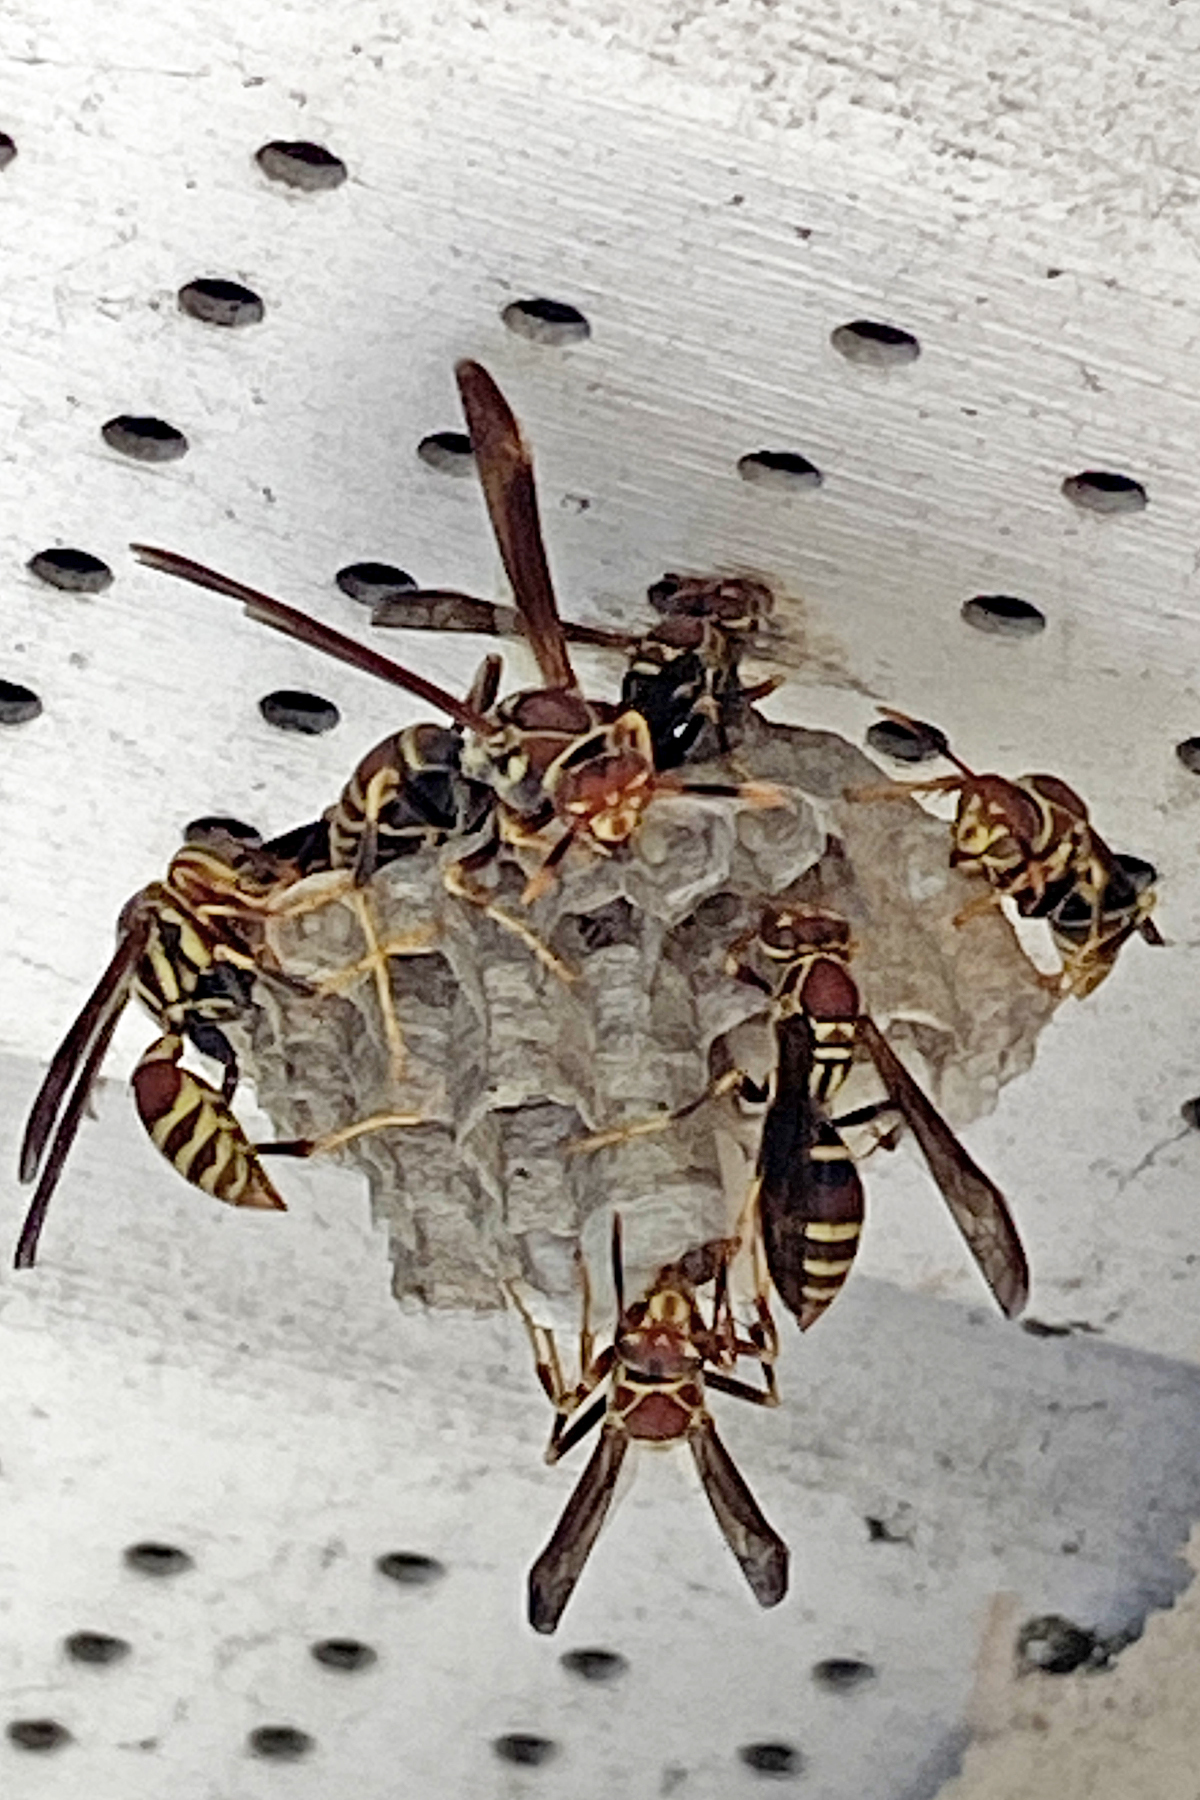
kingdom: Animalia
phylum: Arthropoda
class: Insecta
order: Hymenoptera
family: Eumenidae
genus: Polistes
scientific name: Polistes exclamans
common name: Paper wasp
